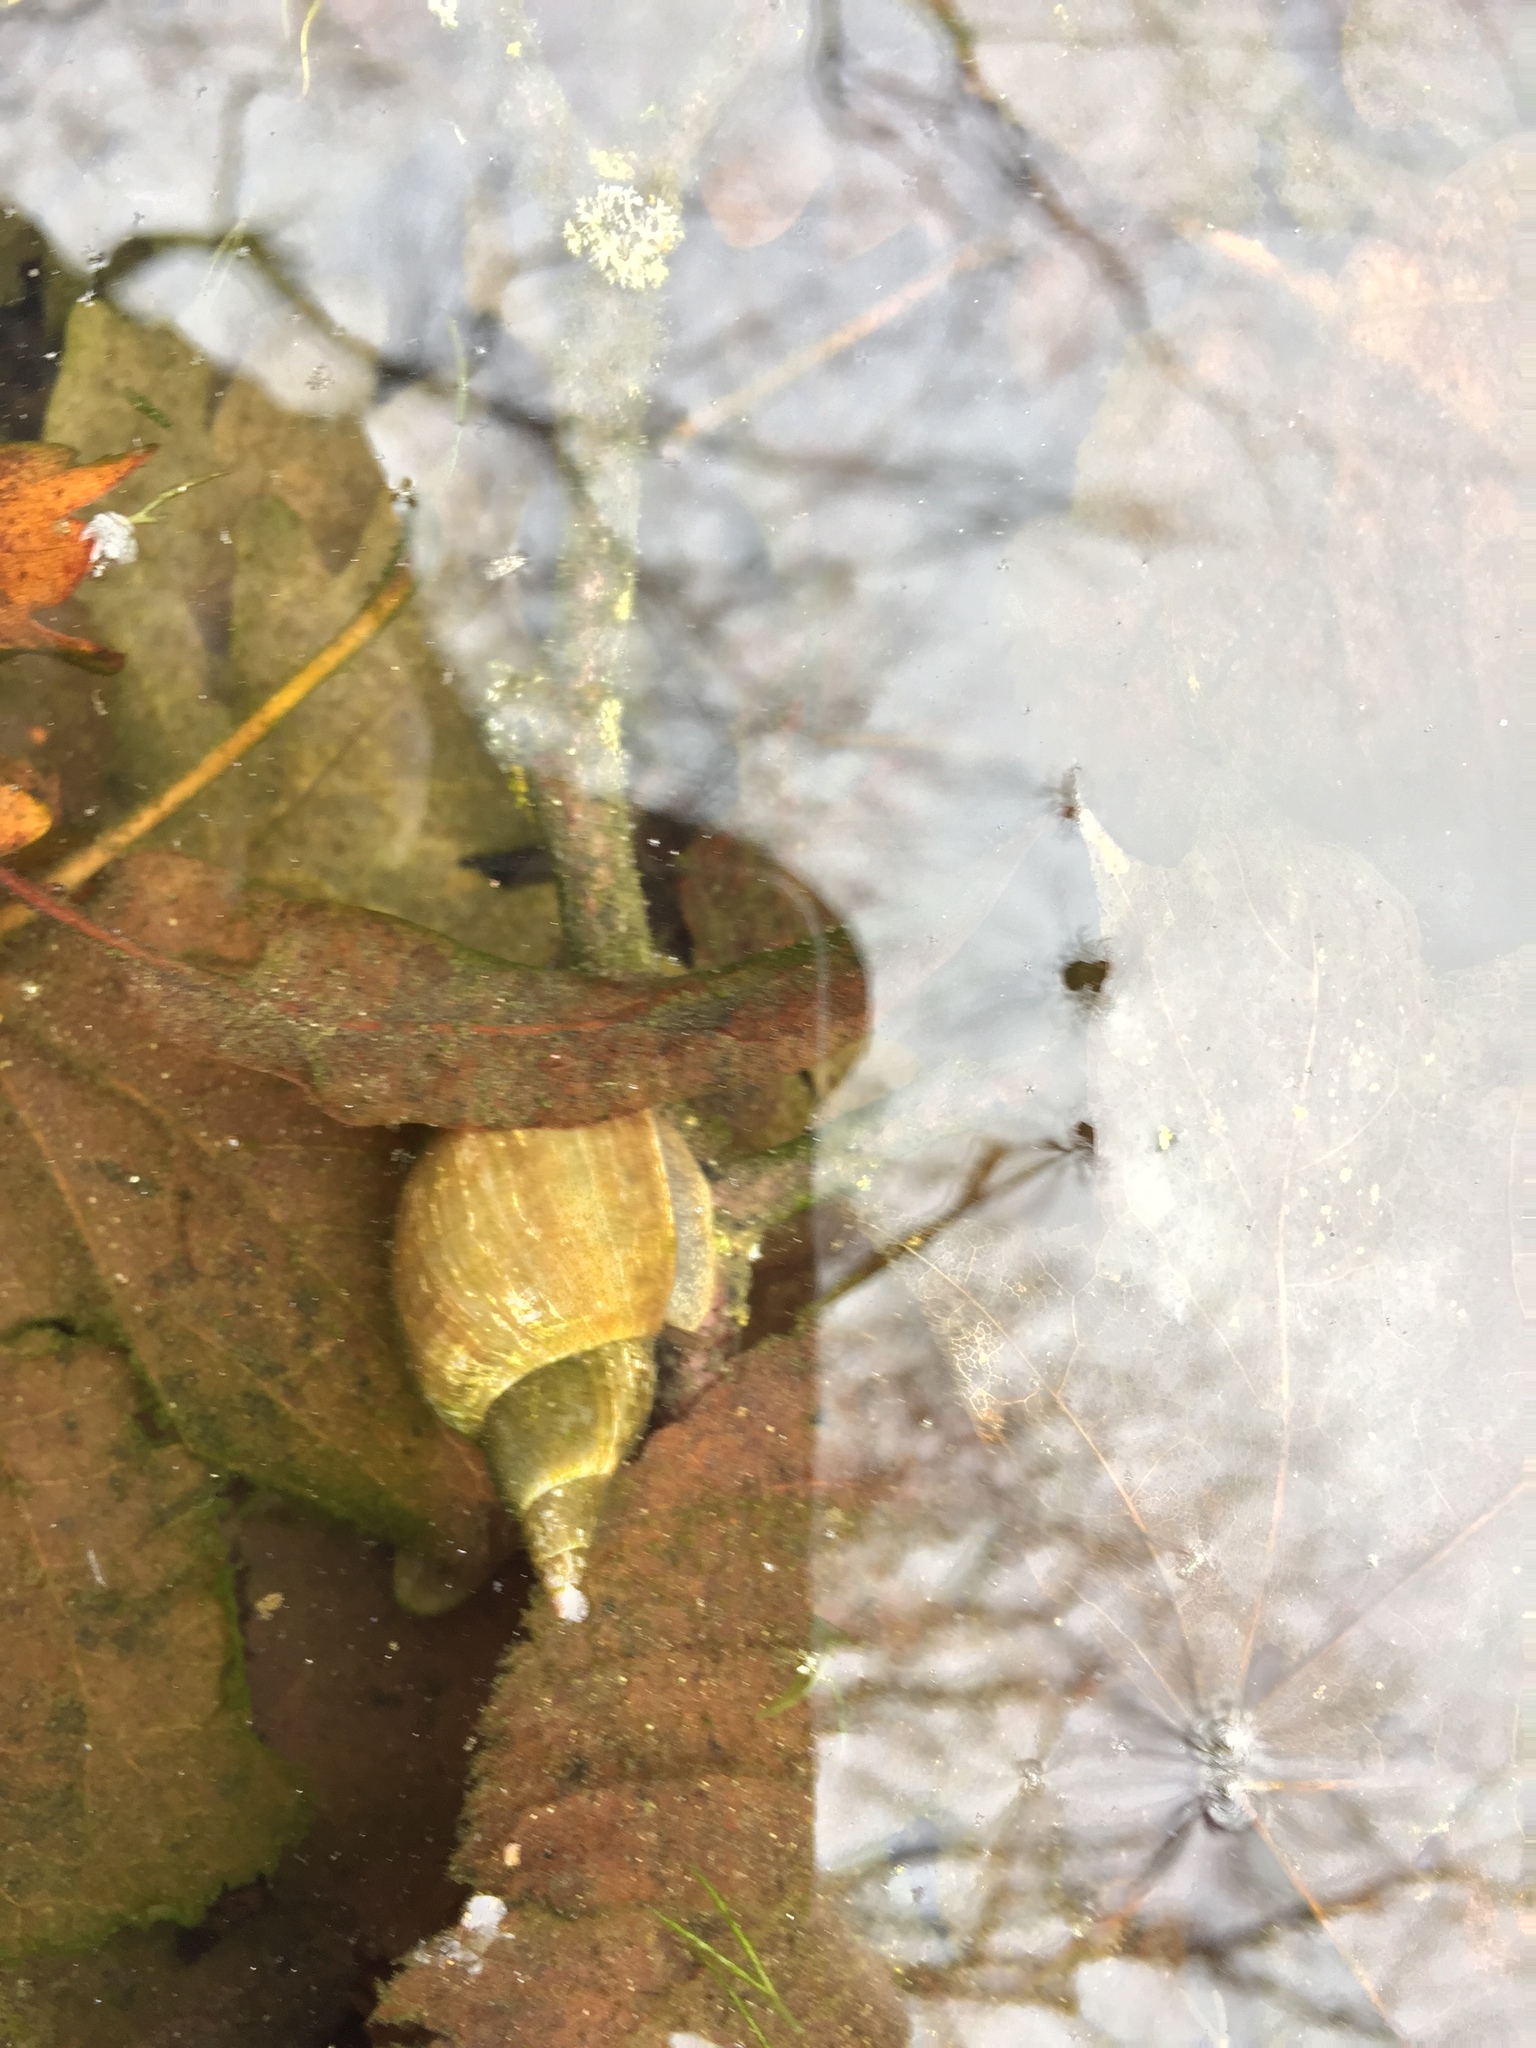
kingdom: Animalia
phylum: Mollusca
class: Gastropoda
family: Lymnaeidae
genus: Lymnaea
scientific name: Lymnaea stagnalis
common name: Great pond snail
